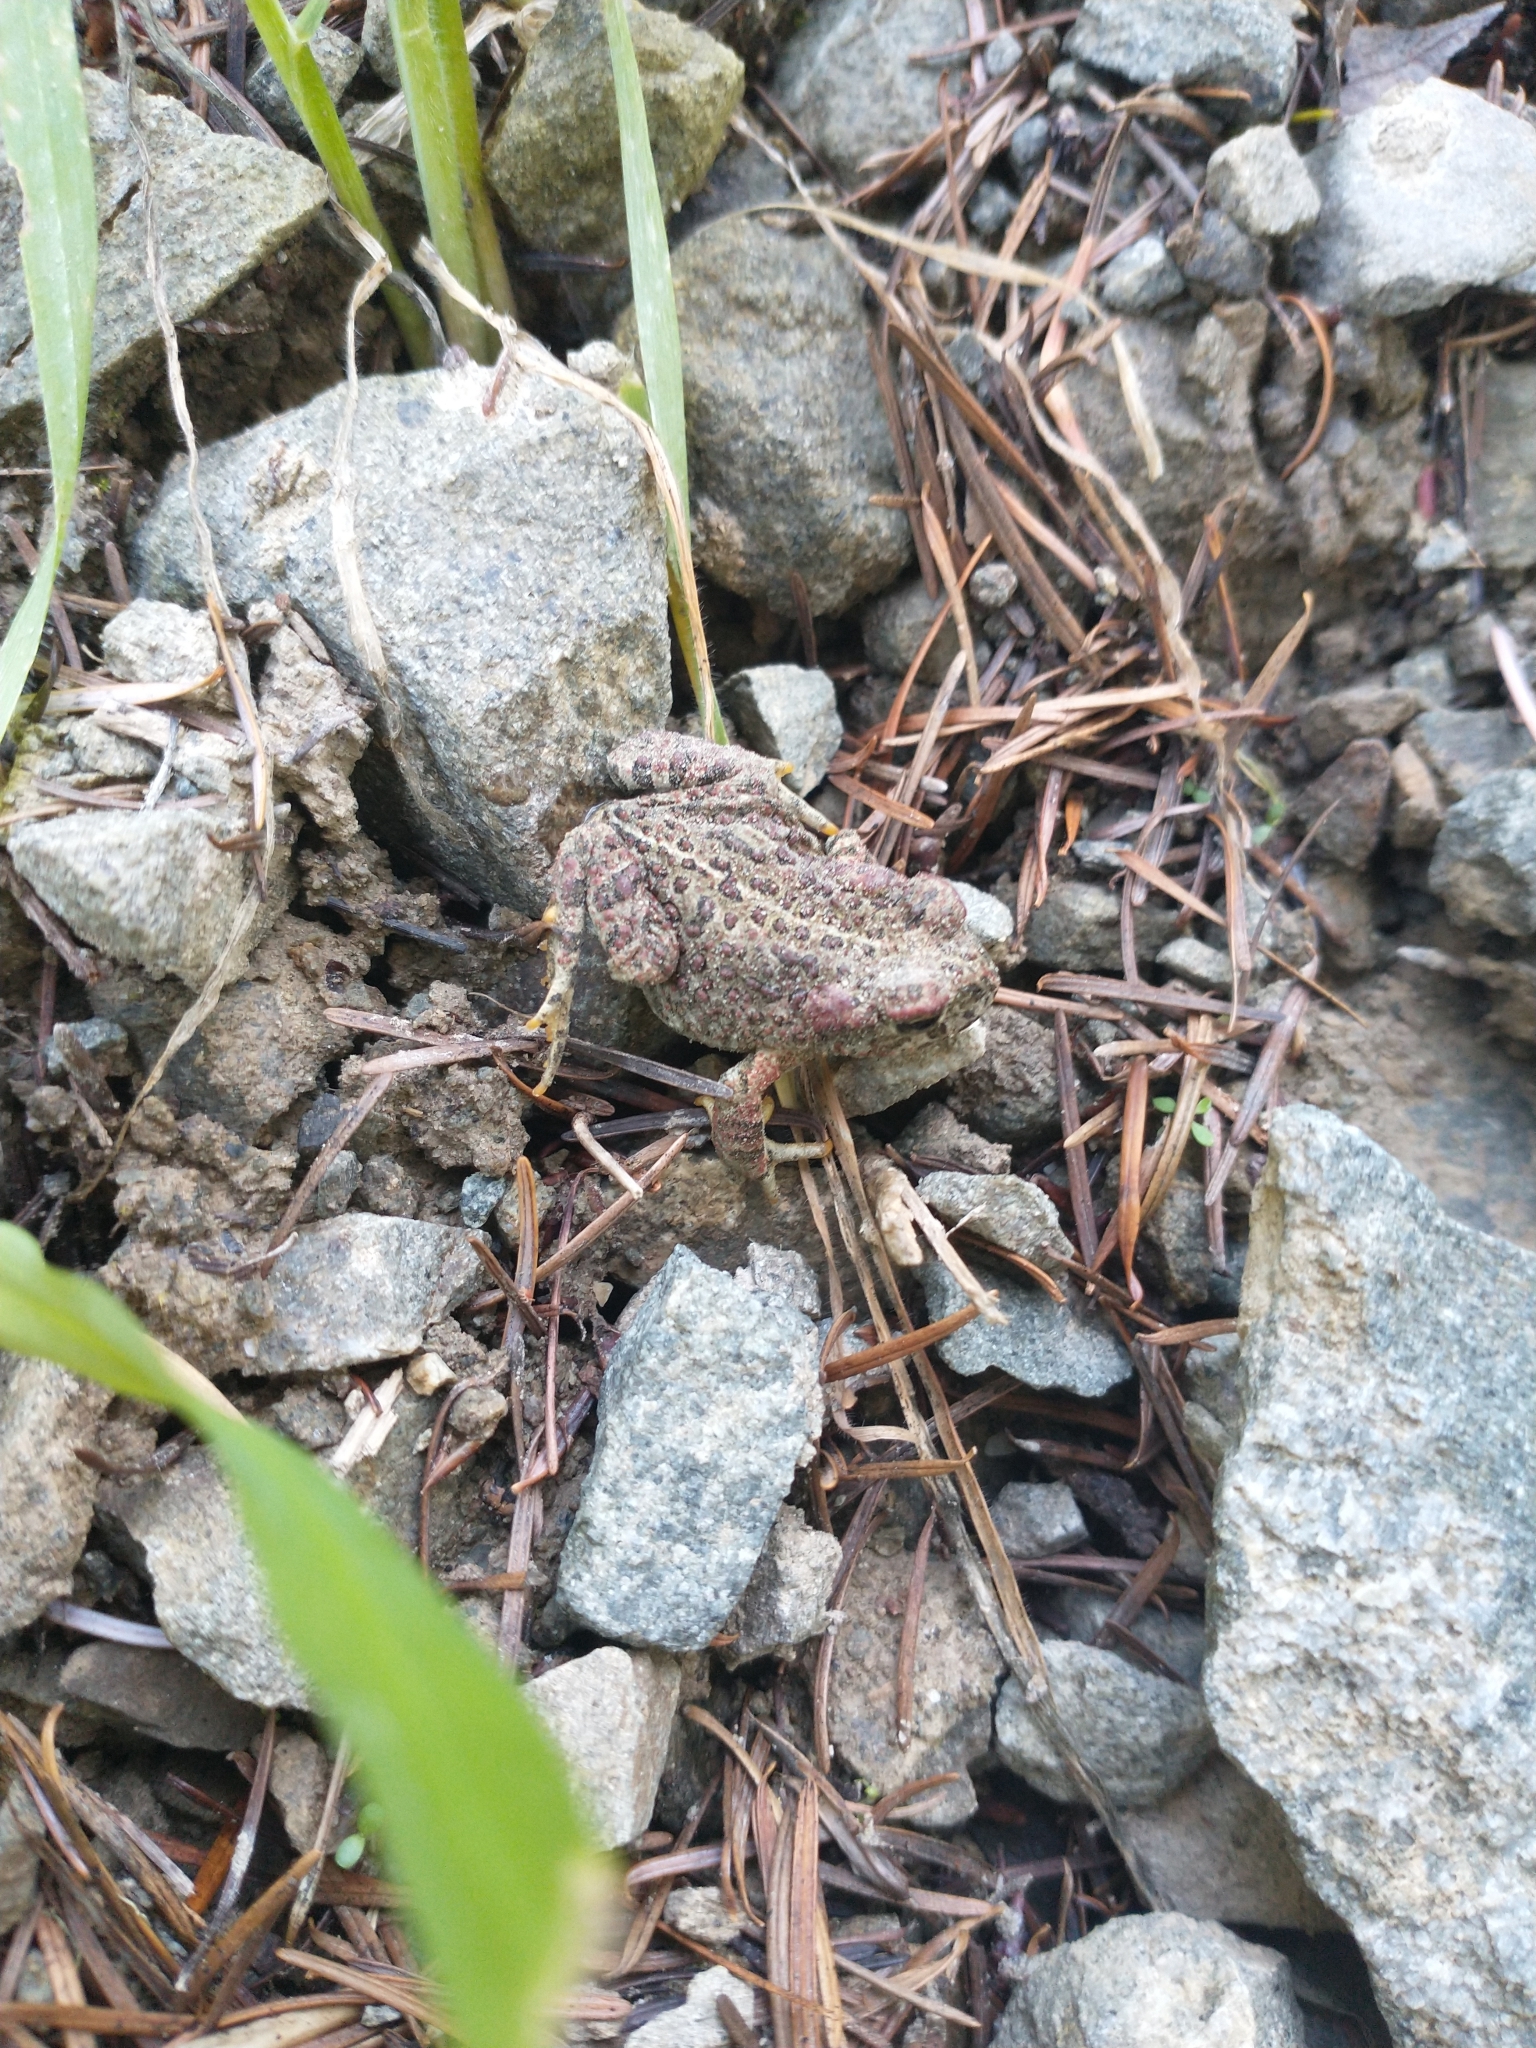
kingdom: Animalia
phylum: Chordata
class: Amphibia
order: Anura
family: Bufonidae
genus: Anaxyrus
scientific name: Anaxyrus boreas
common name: Western toad
